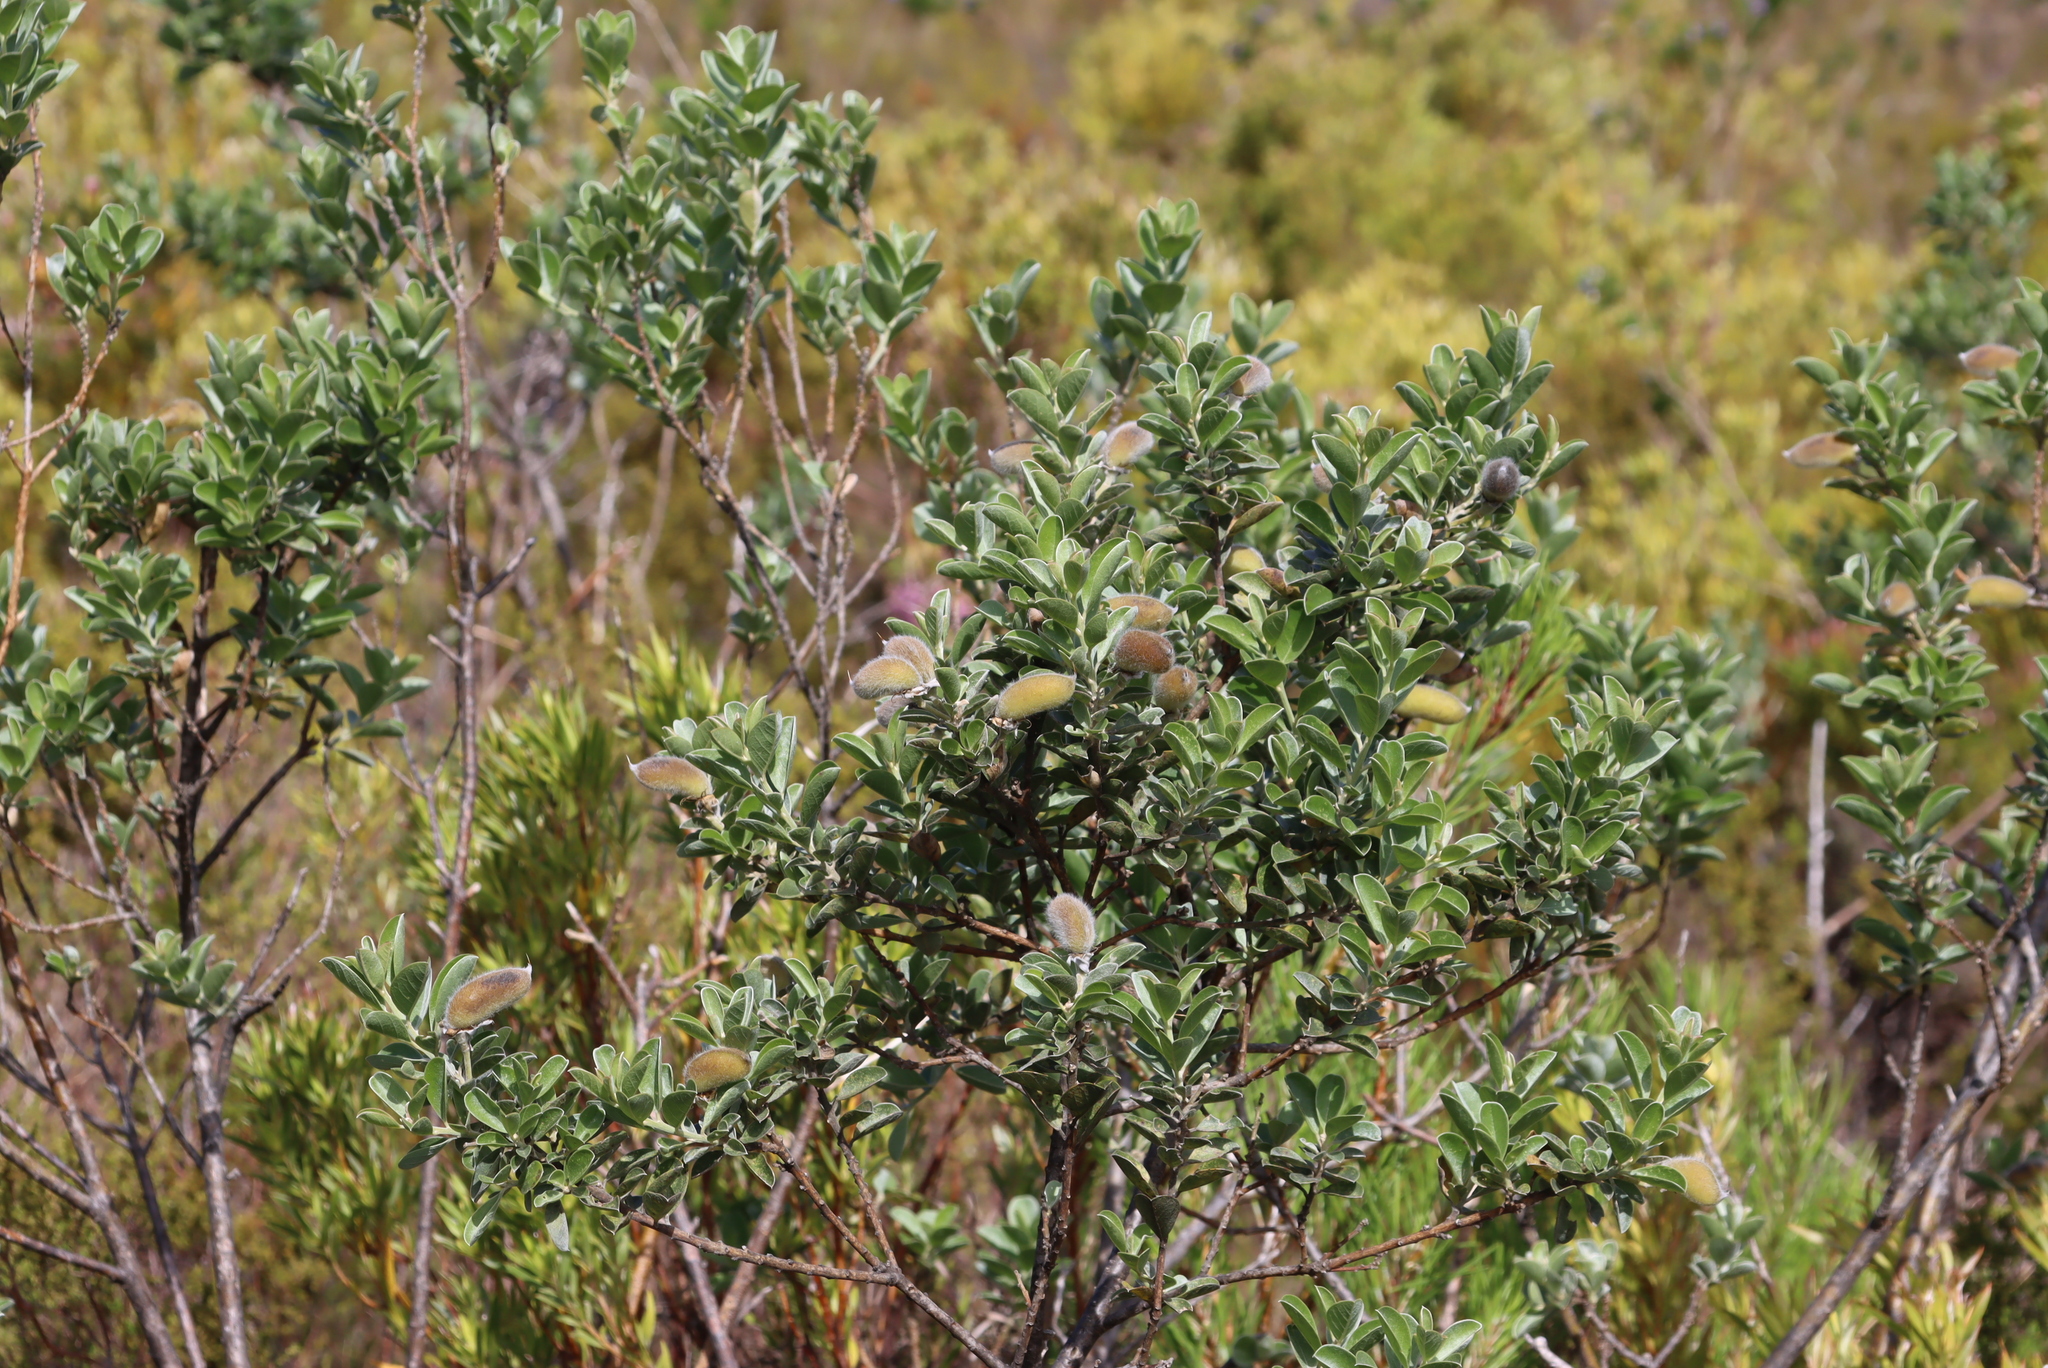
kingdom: Plantae
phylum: Tracheophyta
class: Magnoliopsida
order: Fabales
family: Fabaceae
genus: Podalyria
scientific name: Podalyria calyptrata
